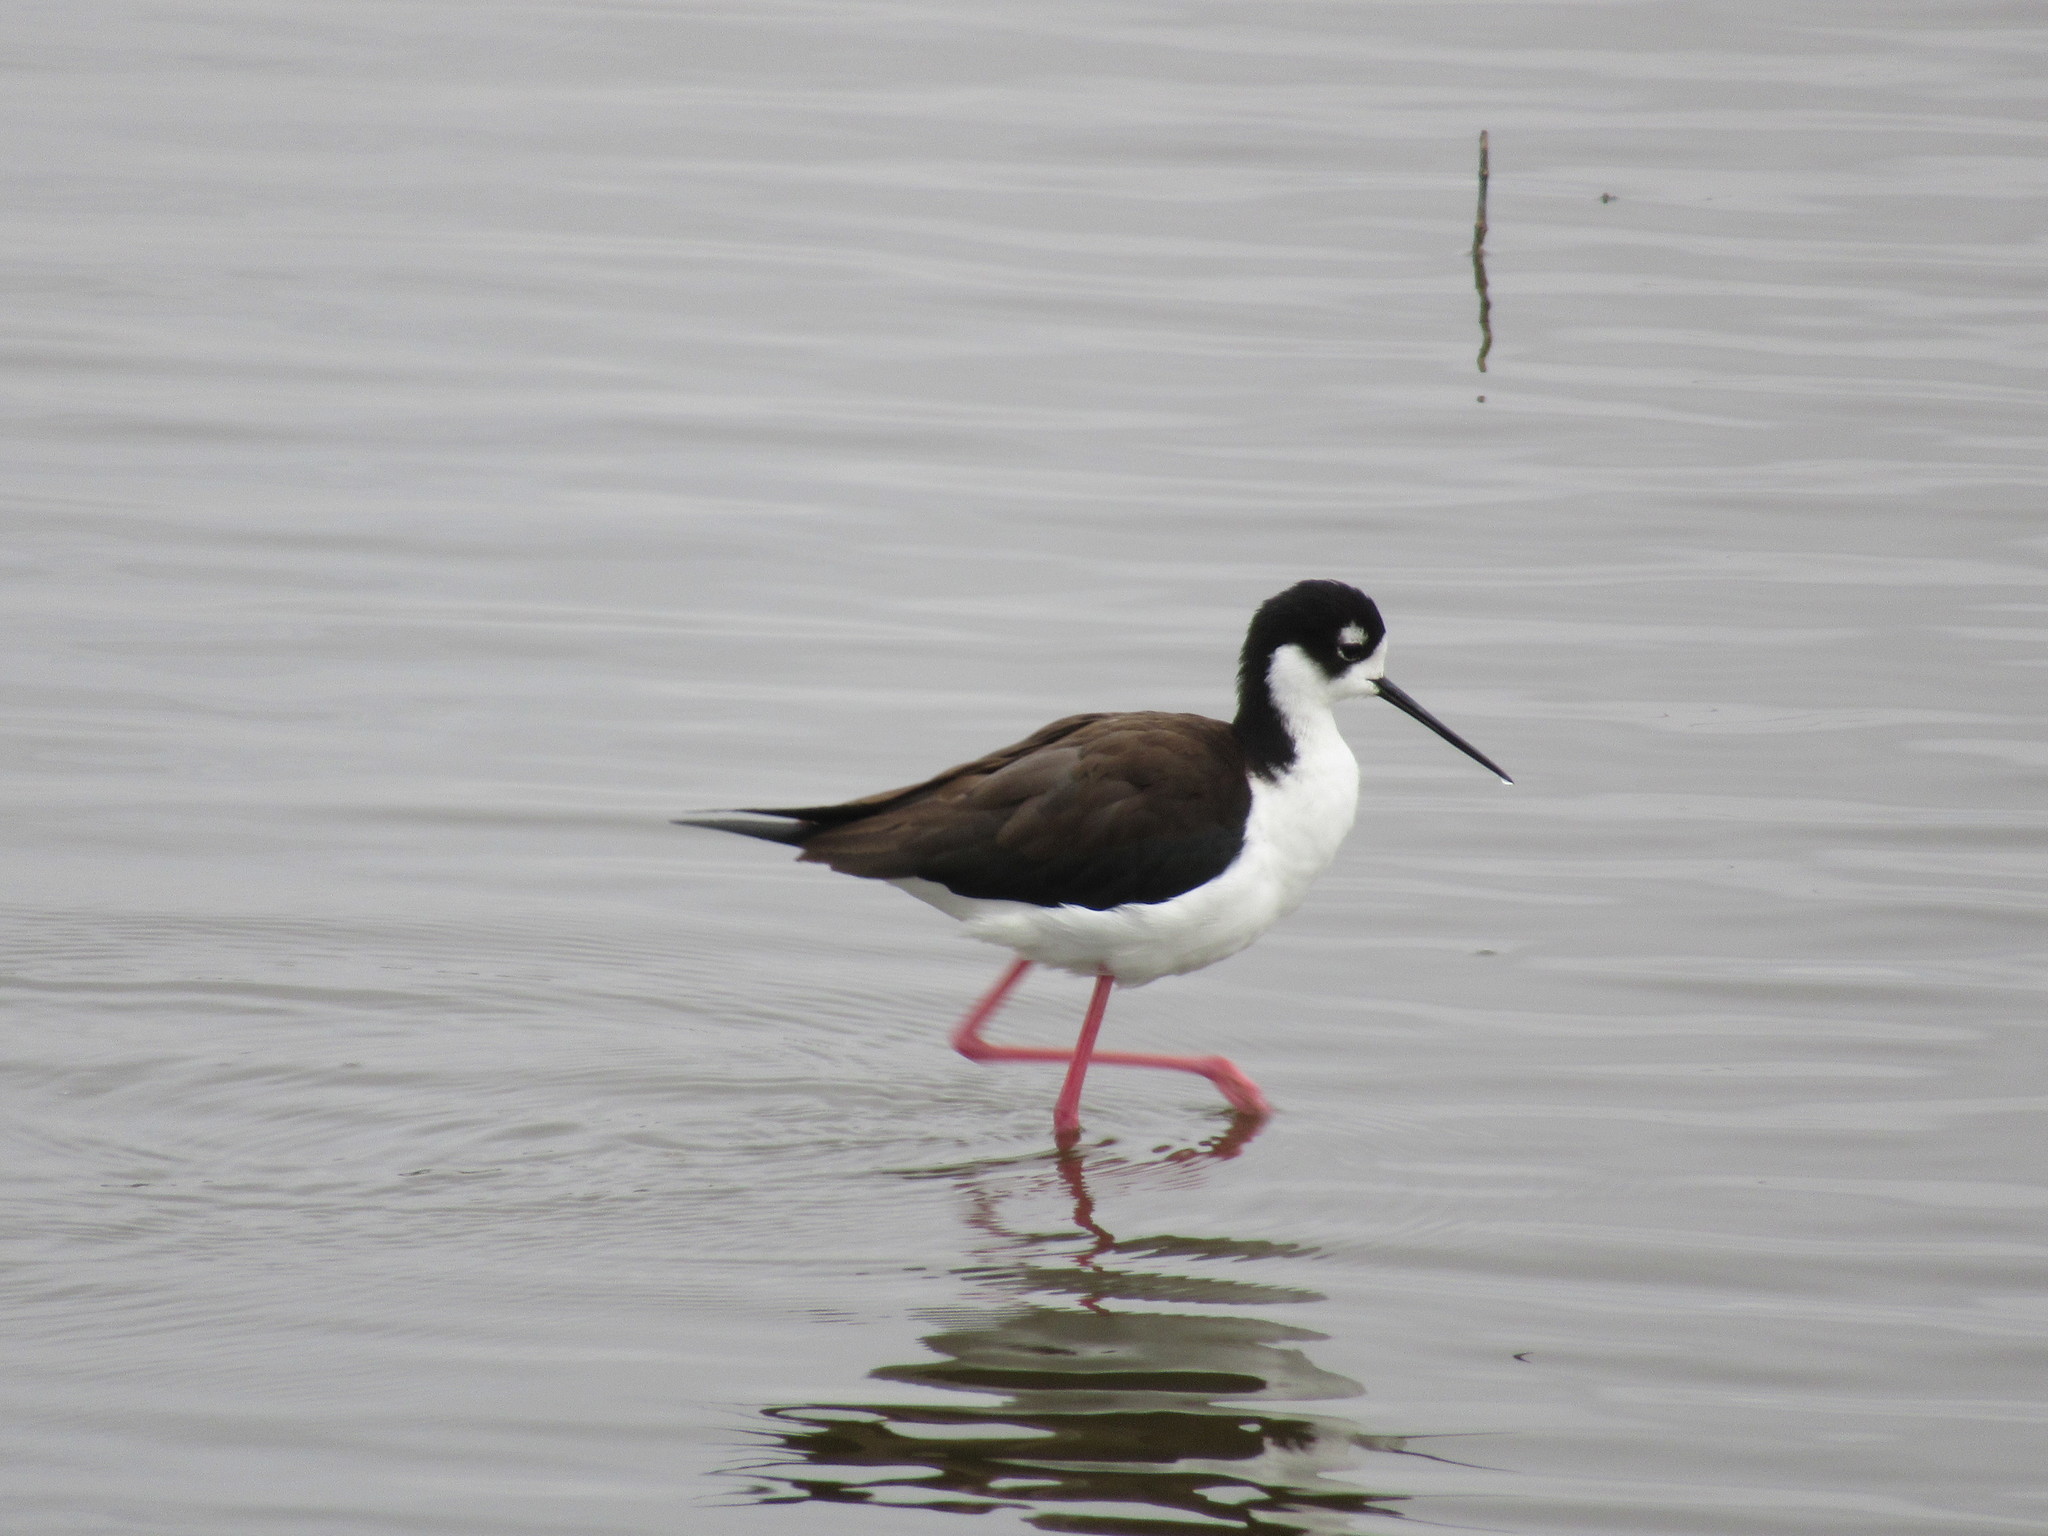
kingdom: Animalia
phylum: Chordata
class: Aves
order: Charadriiformes
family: Recurvirostridae
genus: Himantopus
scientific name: Himantopus mexicanus
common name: Black-necked stilt
